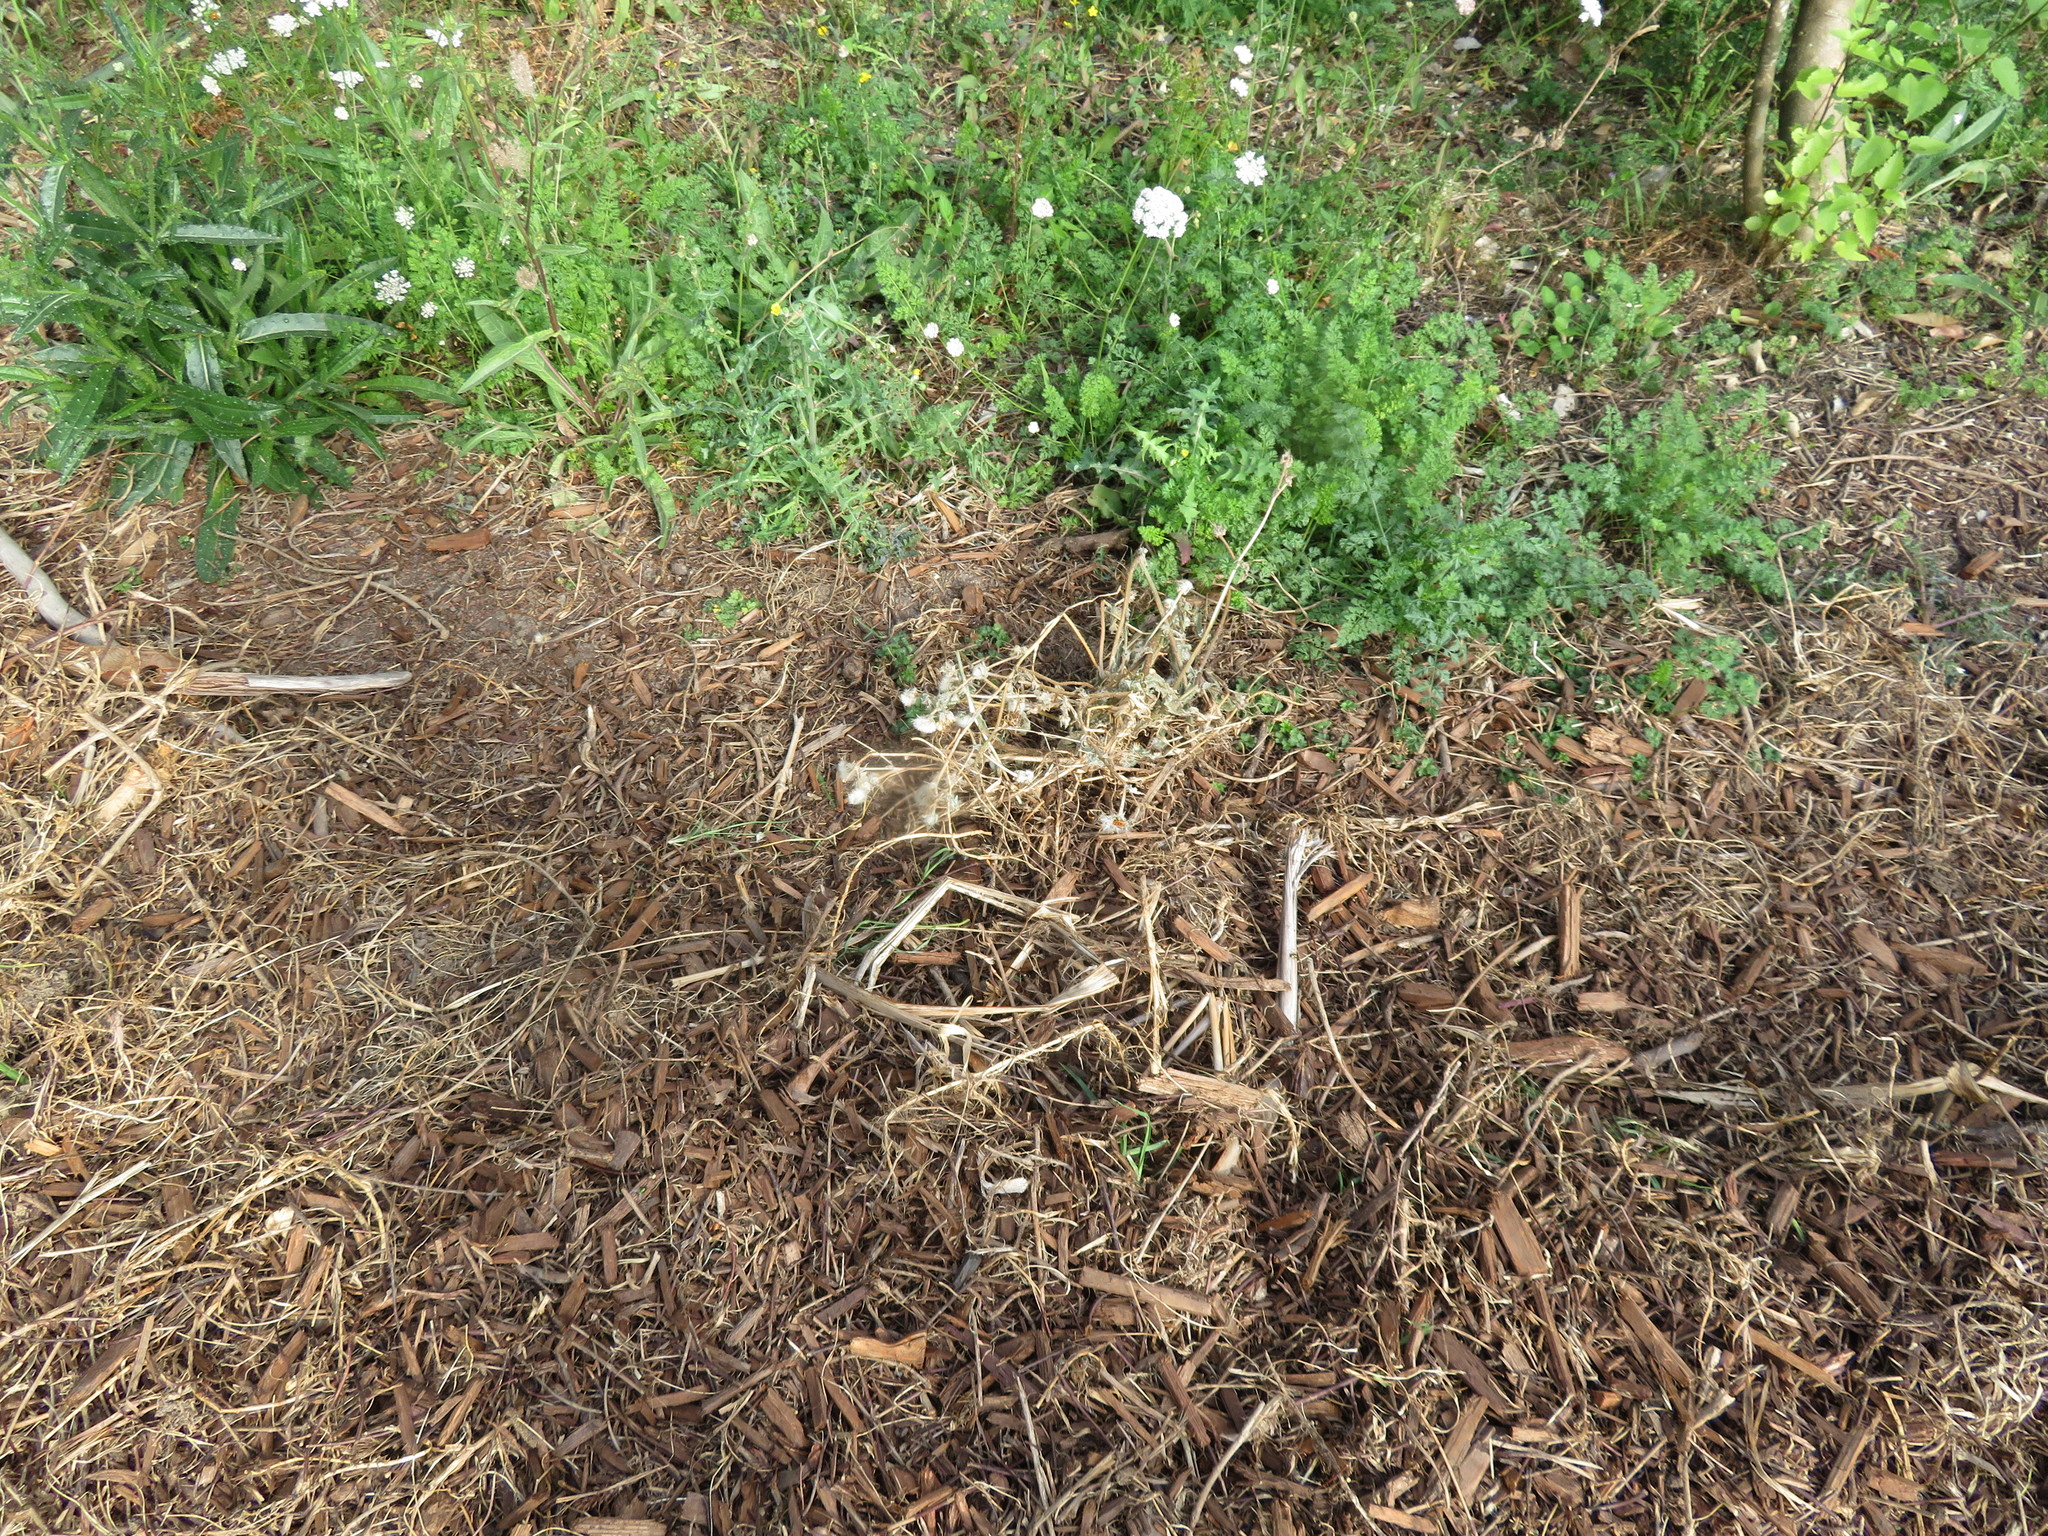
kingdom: Plantae
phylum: Tracheophyta
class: Magnoliopsida
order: Asterales
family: Asteraceae
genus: Helminthotheca
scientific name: Helminthotheca echioides
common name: Ox-tongue
